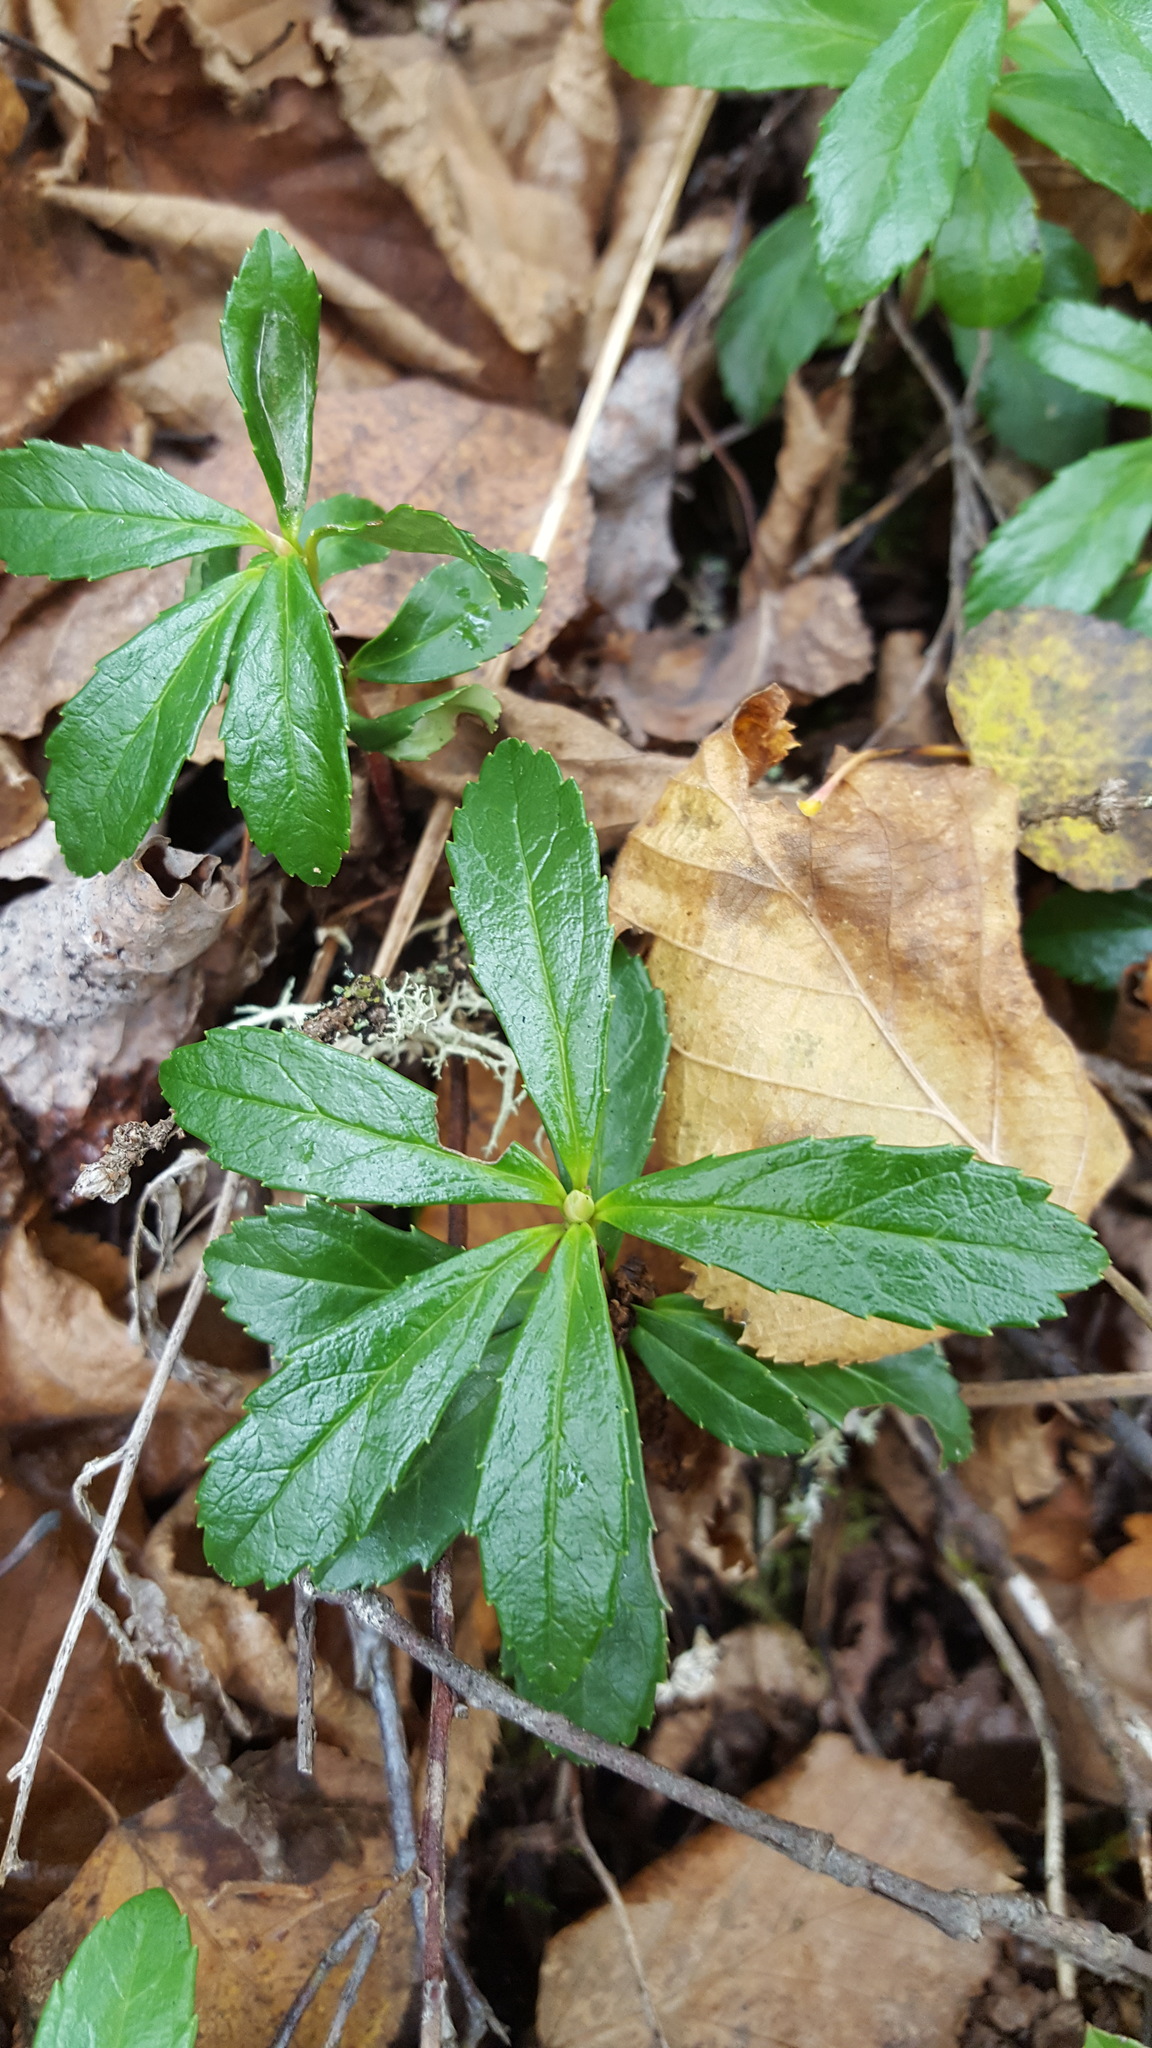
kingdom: Plantae
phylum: Tracheophyta
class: Magnoliopsida
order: Ericales
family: Ericaceae
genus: Chimaphila
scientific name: Chimaphila umbellata
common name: Pipsissewa
